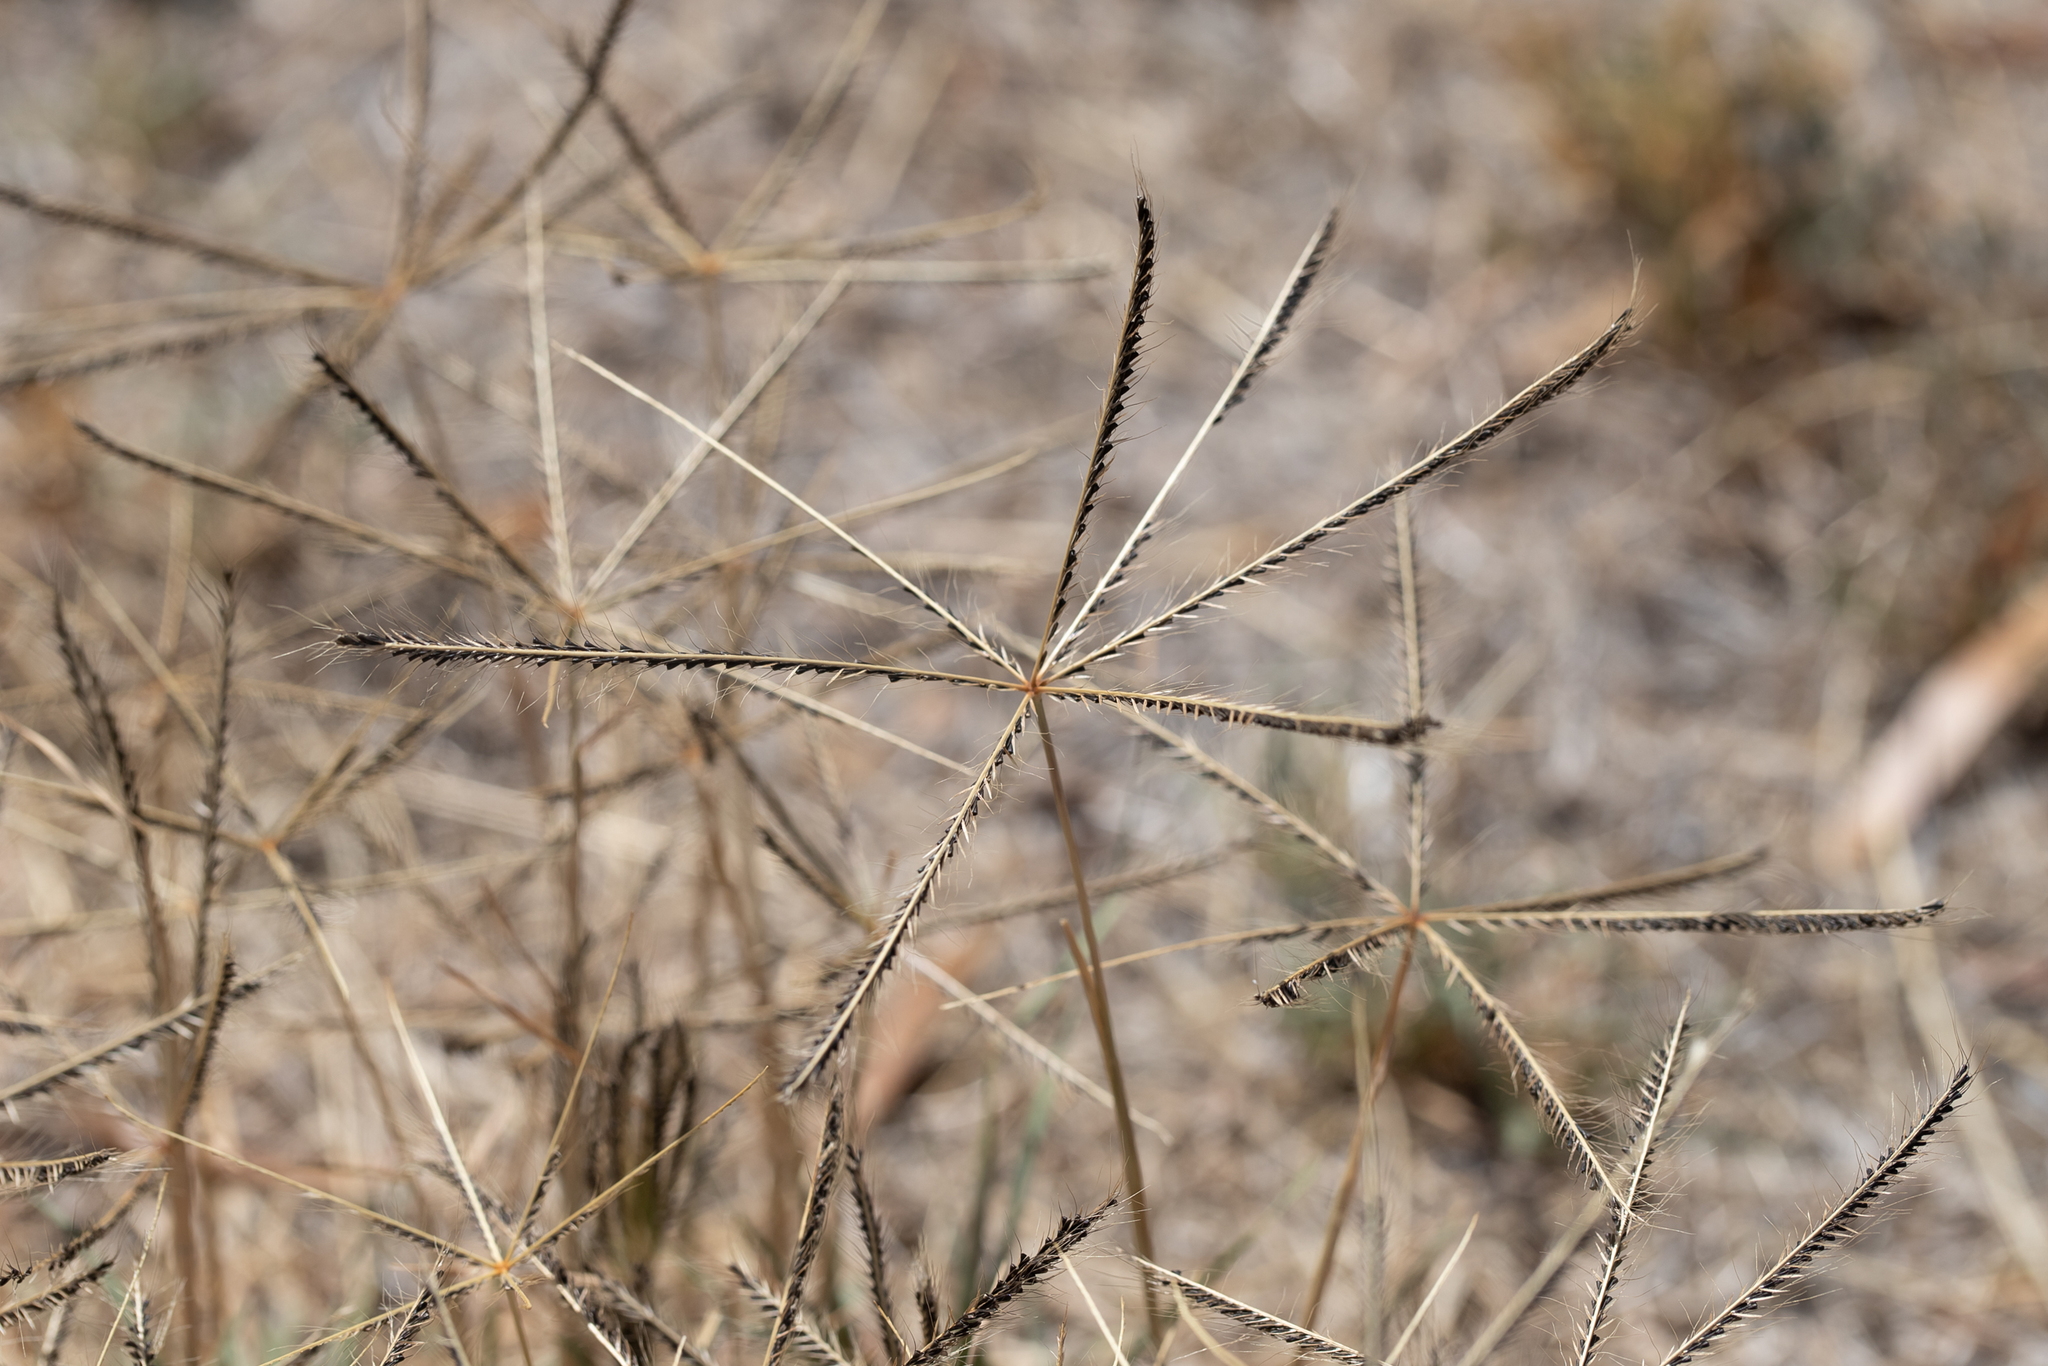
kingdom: Plantae
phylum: Tracheophyta
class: Liliopsida
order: Poales
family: Poaceae
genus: Chloris
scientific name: Chloris truncata
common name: Windmill-grass
